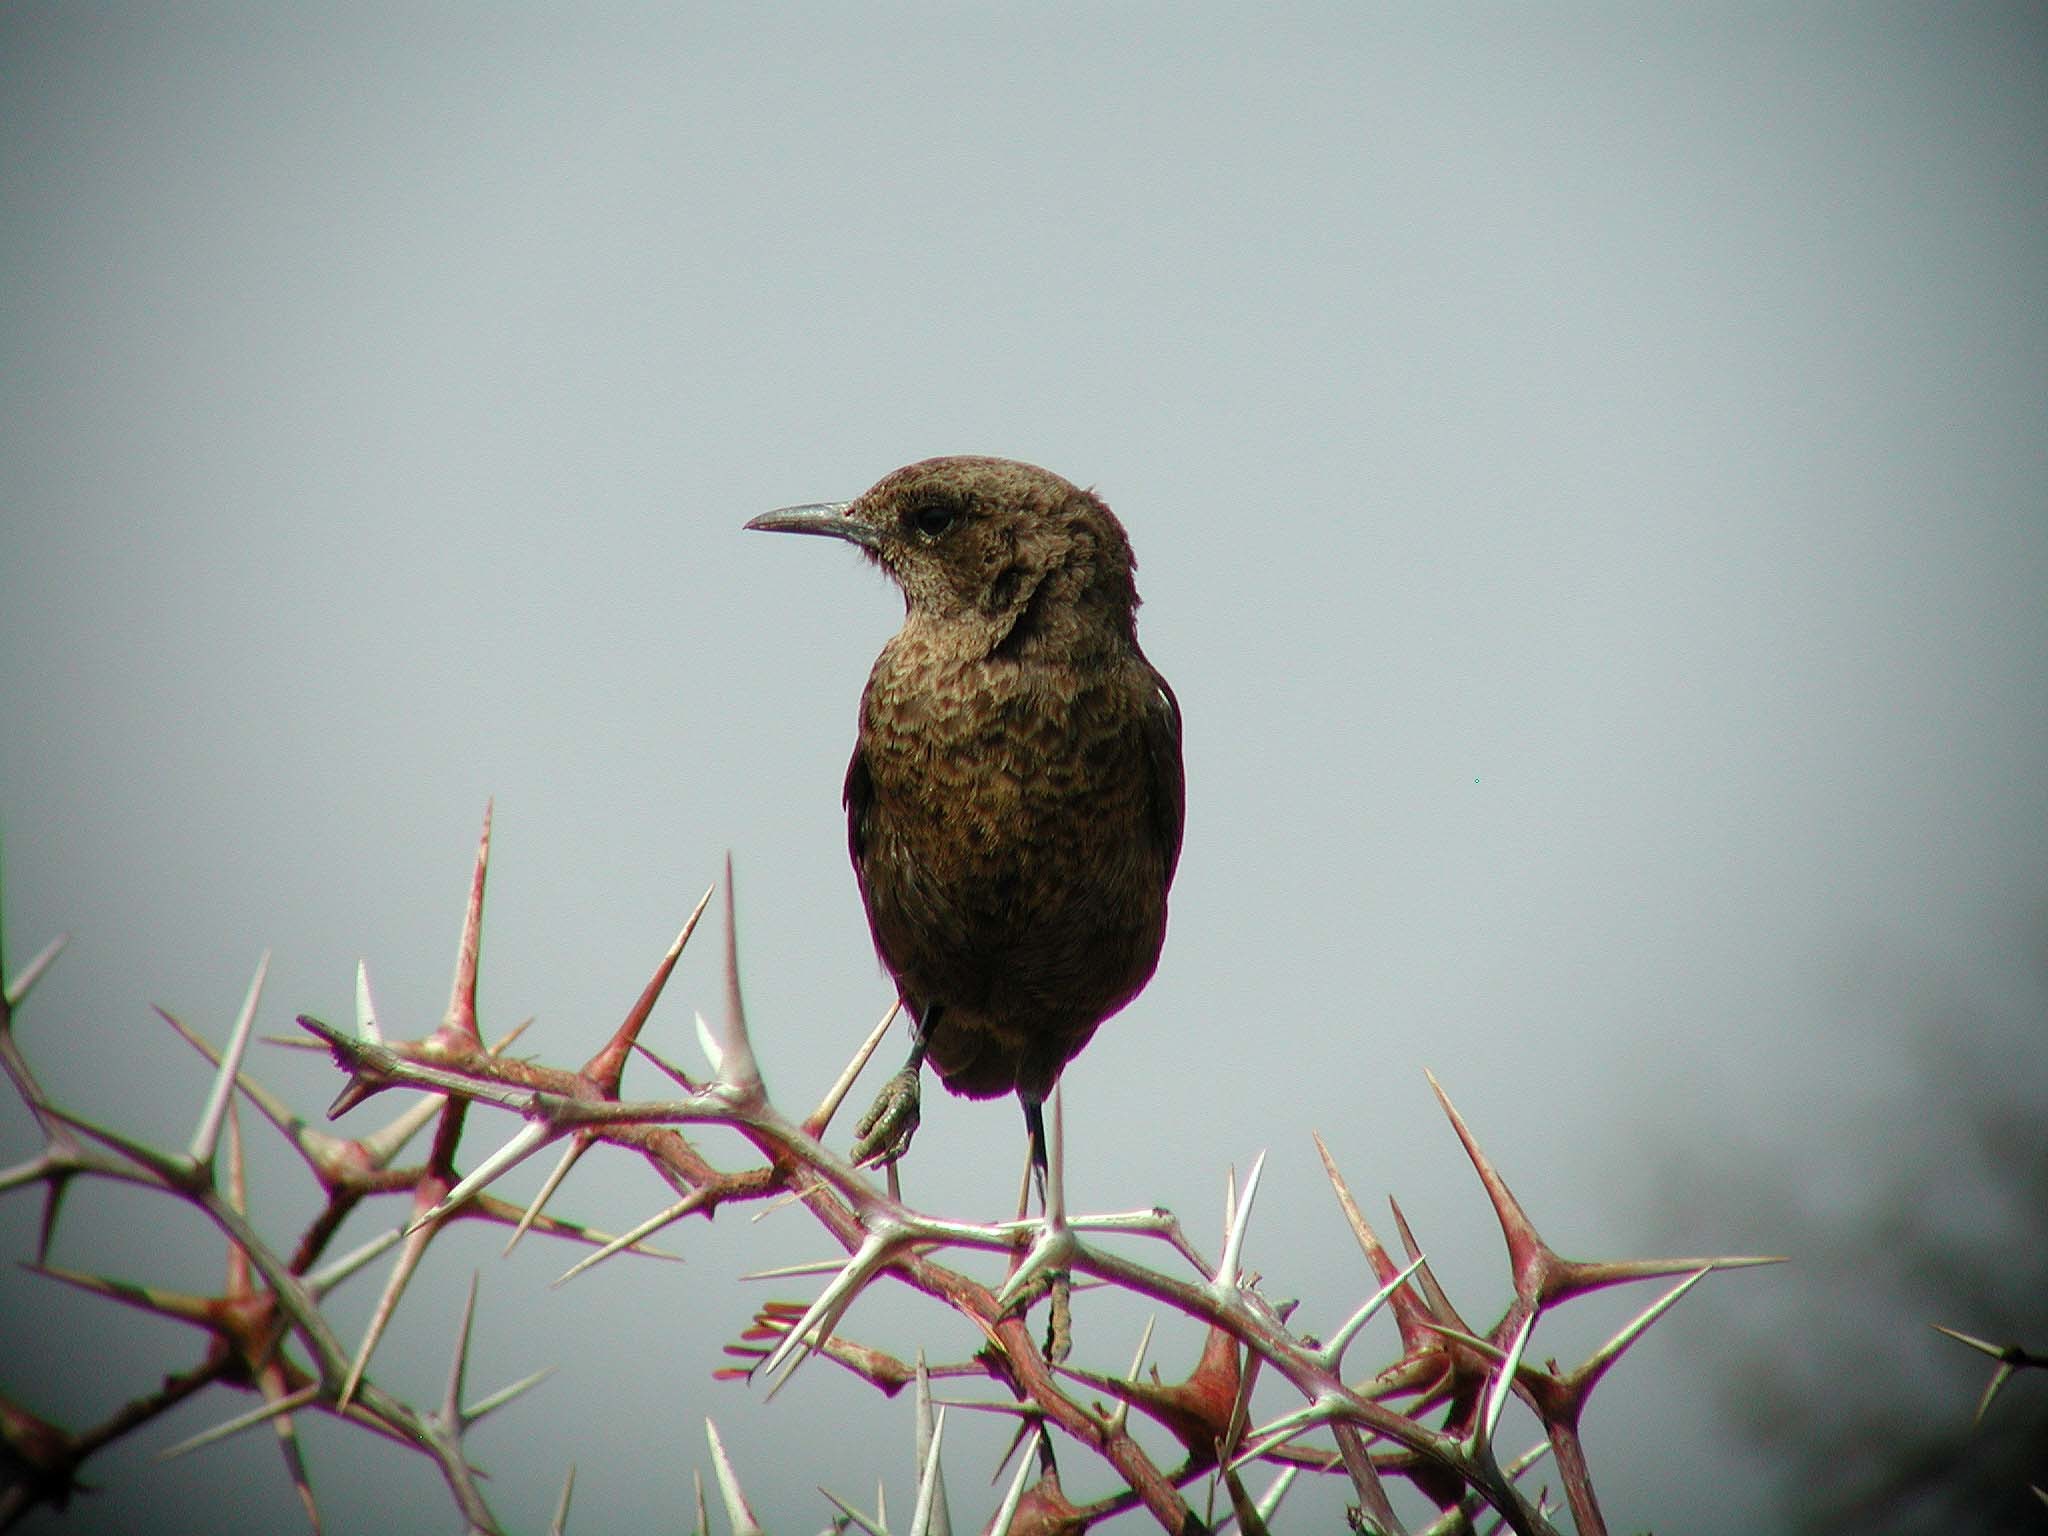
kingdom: Animalia
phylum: Chordata
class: Aves
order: Passeriformes
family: Muscicapidae
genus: Myrmecocichla
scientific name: Myrmecocichla formicivora
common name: Ant-eating chat
